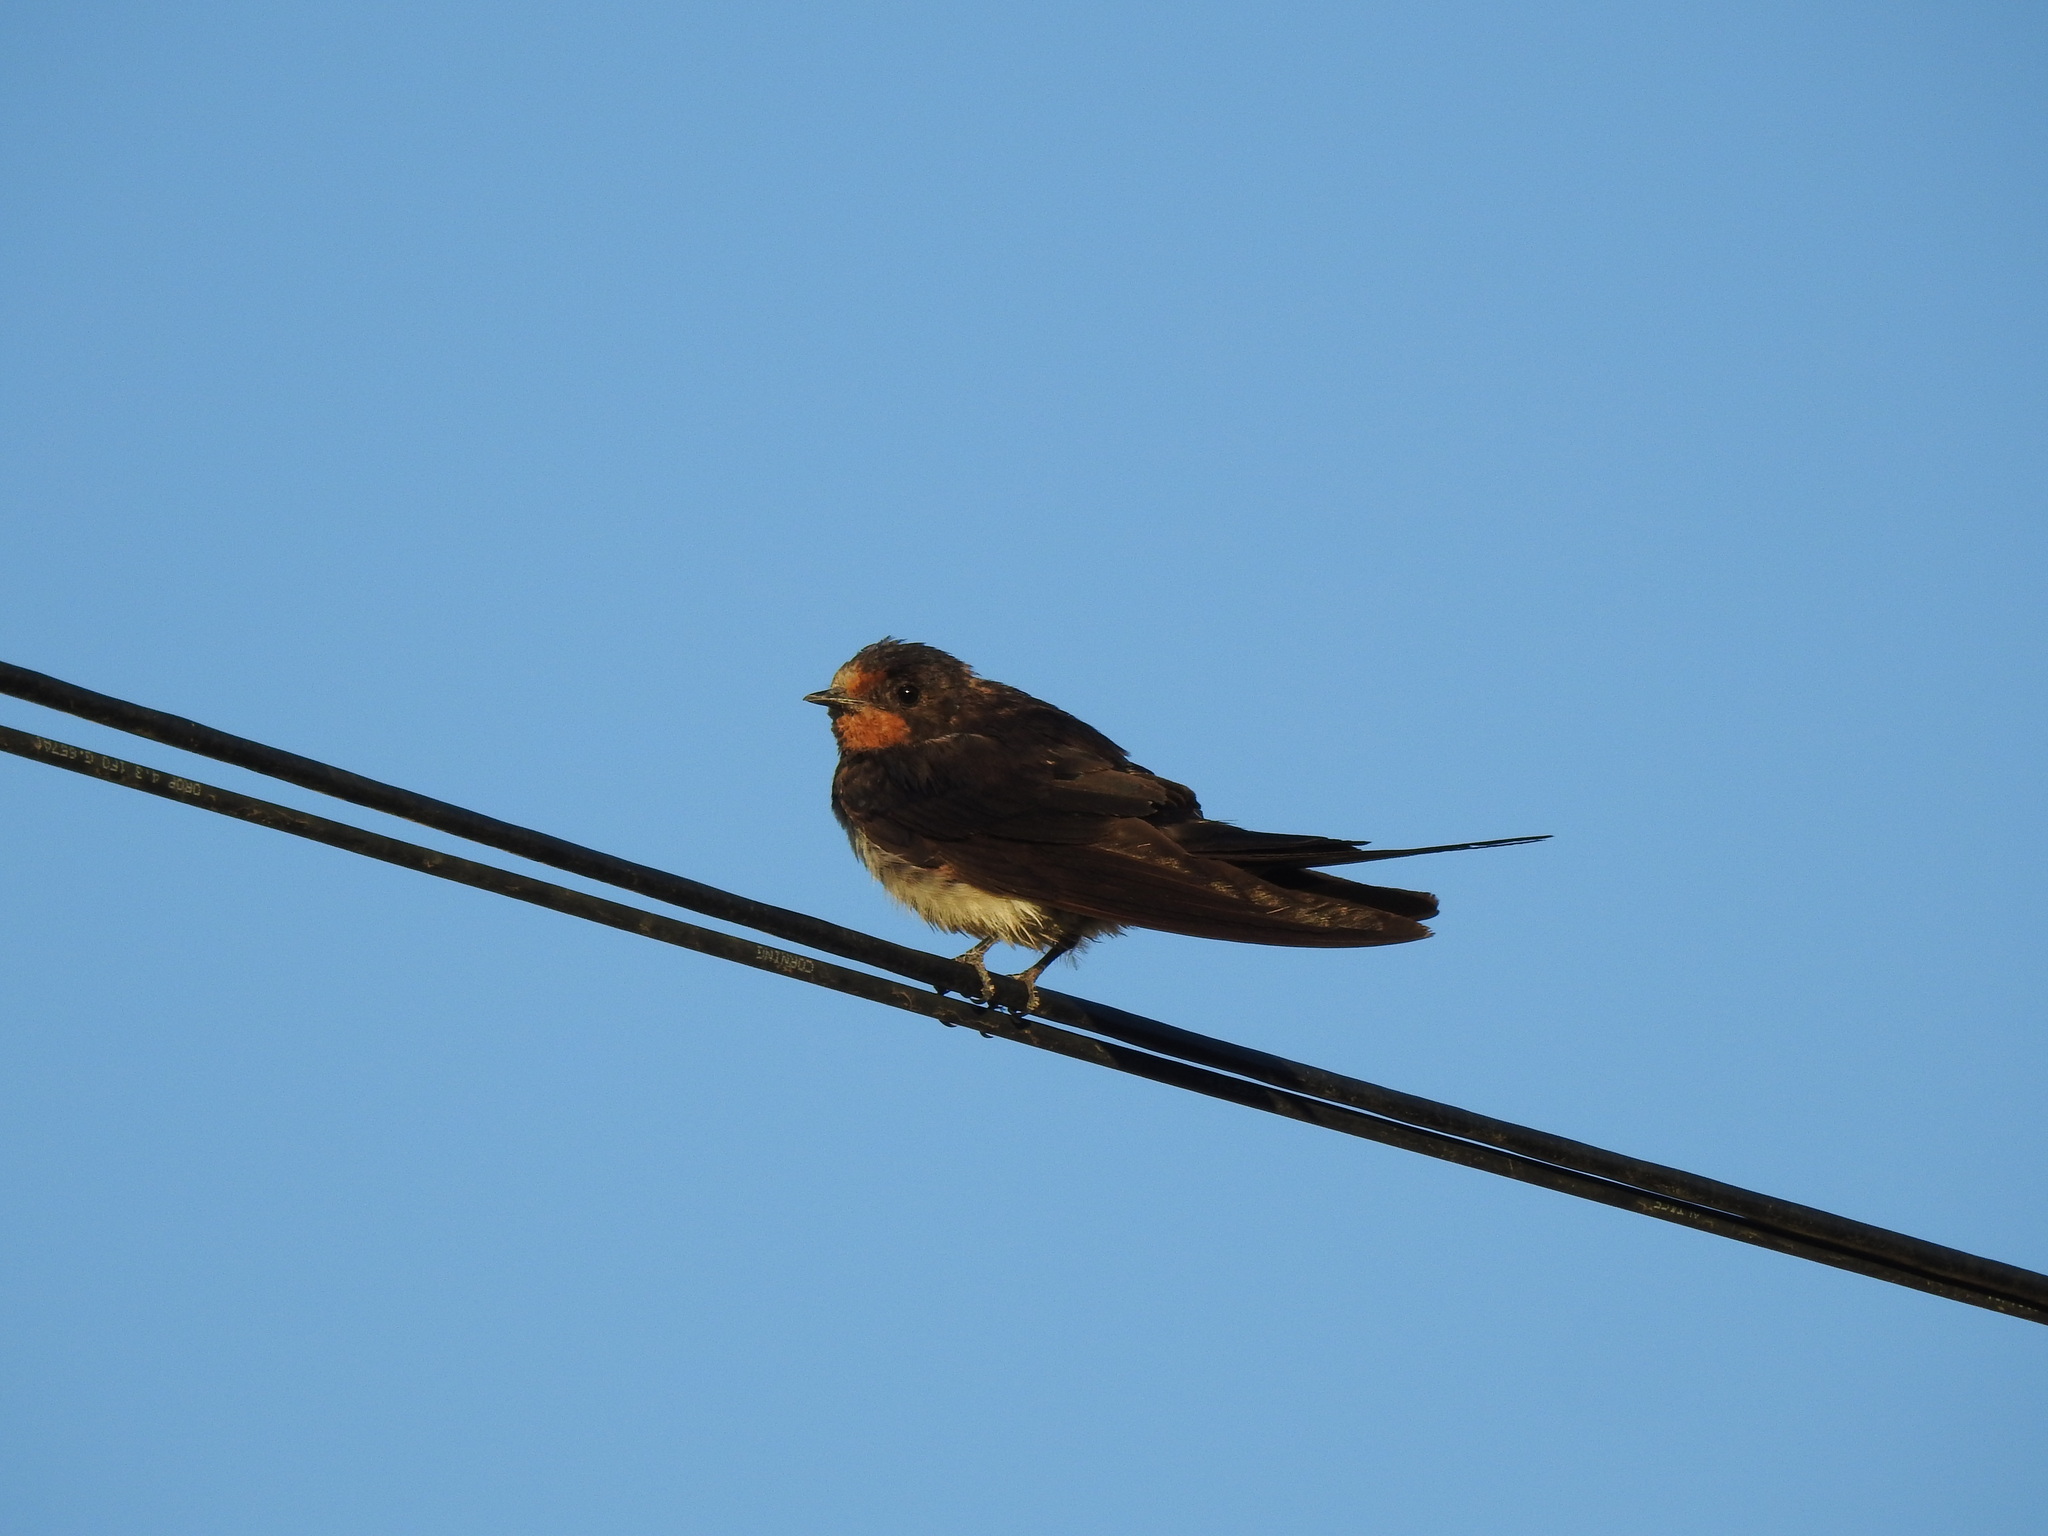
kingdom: Animalia
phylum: Chordata
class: Aves
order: Passeriformes
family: Hirundinidae
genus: Hirundo
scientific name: Hirundo rustica
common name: Barn swallow
